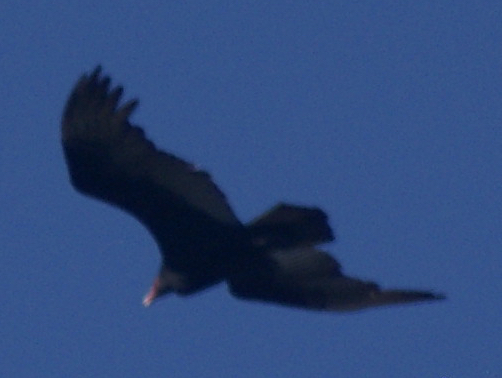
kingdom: Animalia
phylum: Chordata
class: Aves
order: Accipitriformes
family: Cathartidae
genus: Cathartes
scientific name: Cathartes aura
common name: Turkey vulture
